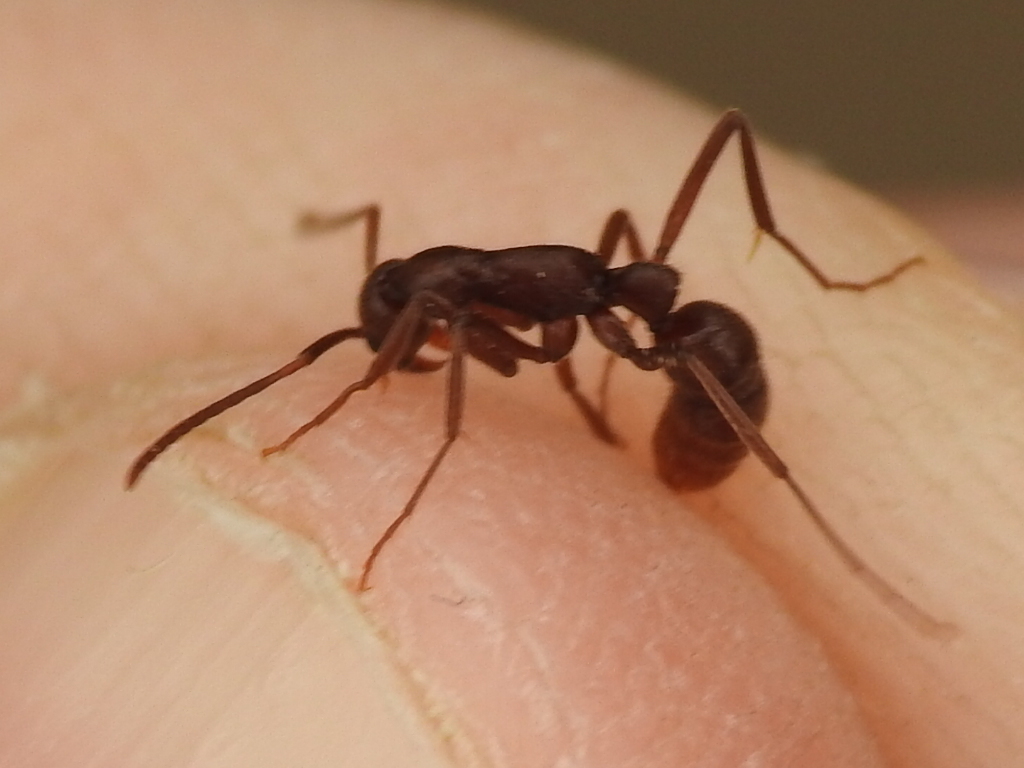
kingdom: Animalia
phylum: Arthropoda
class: Insecta
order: Hymenoptera
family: Formicidae
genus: Leptogenys
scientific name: Leptogenys elongata
